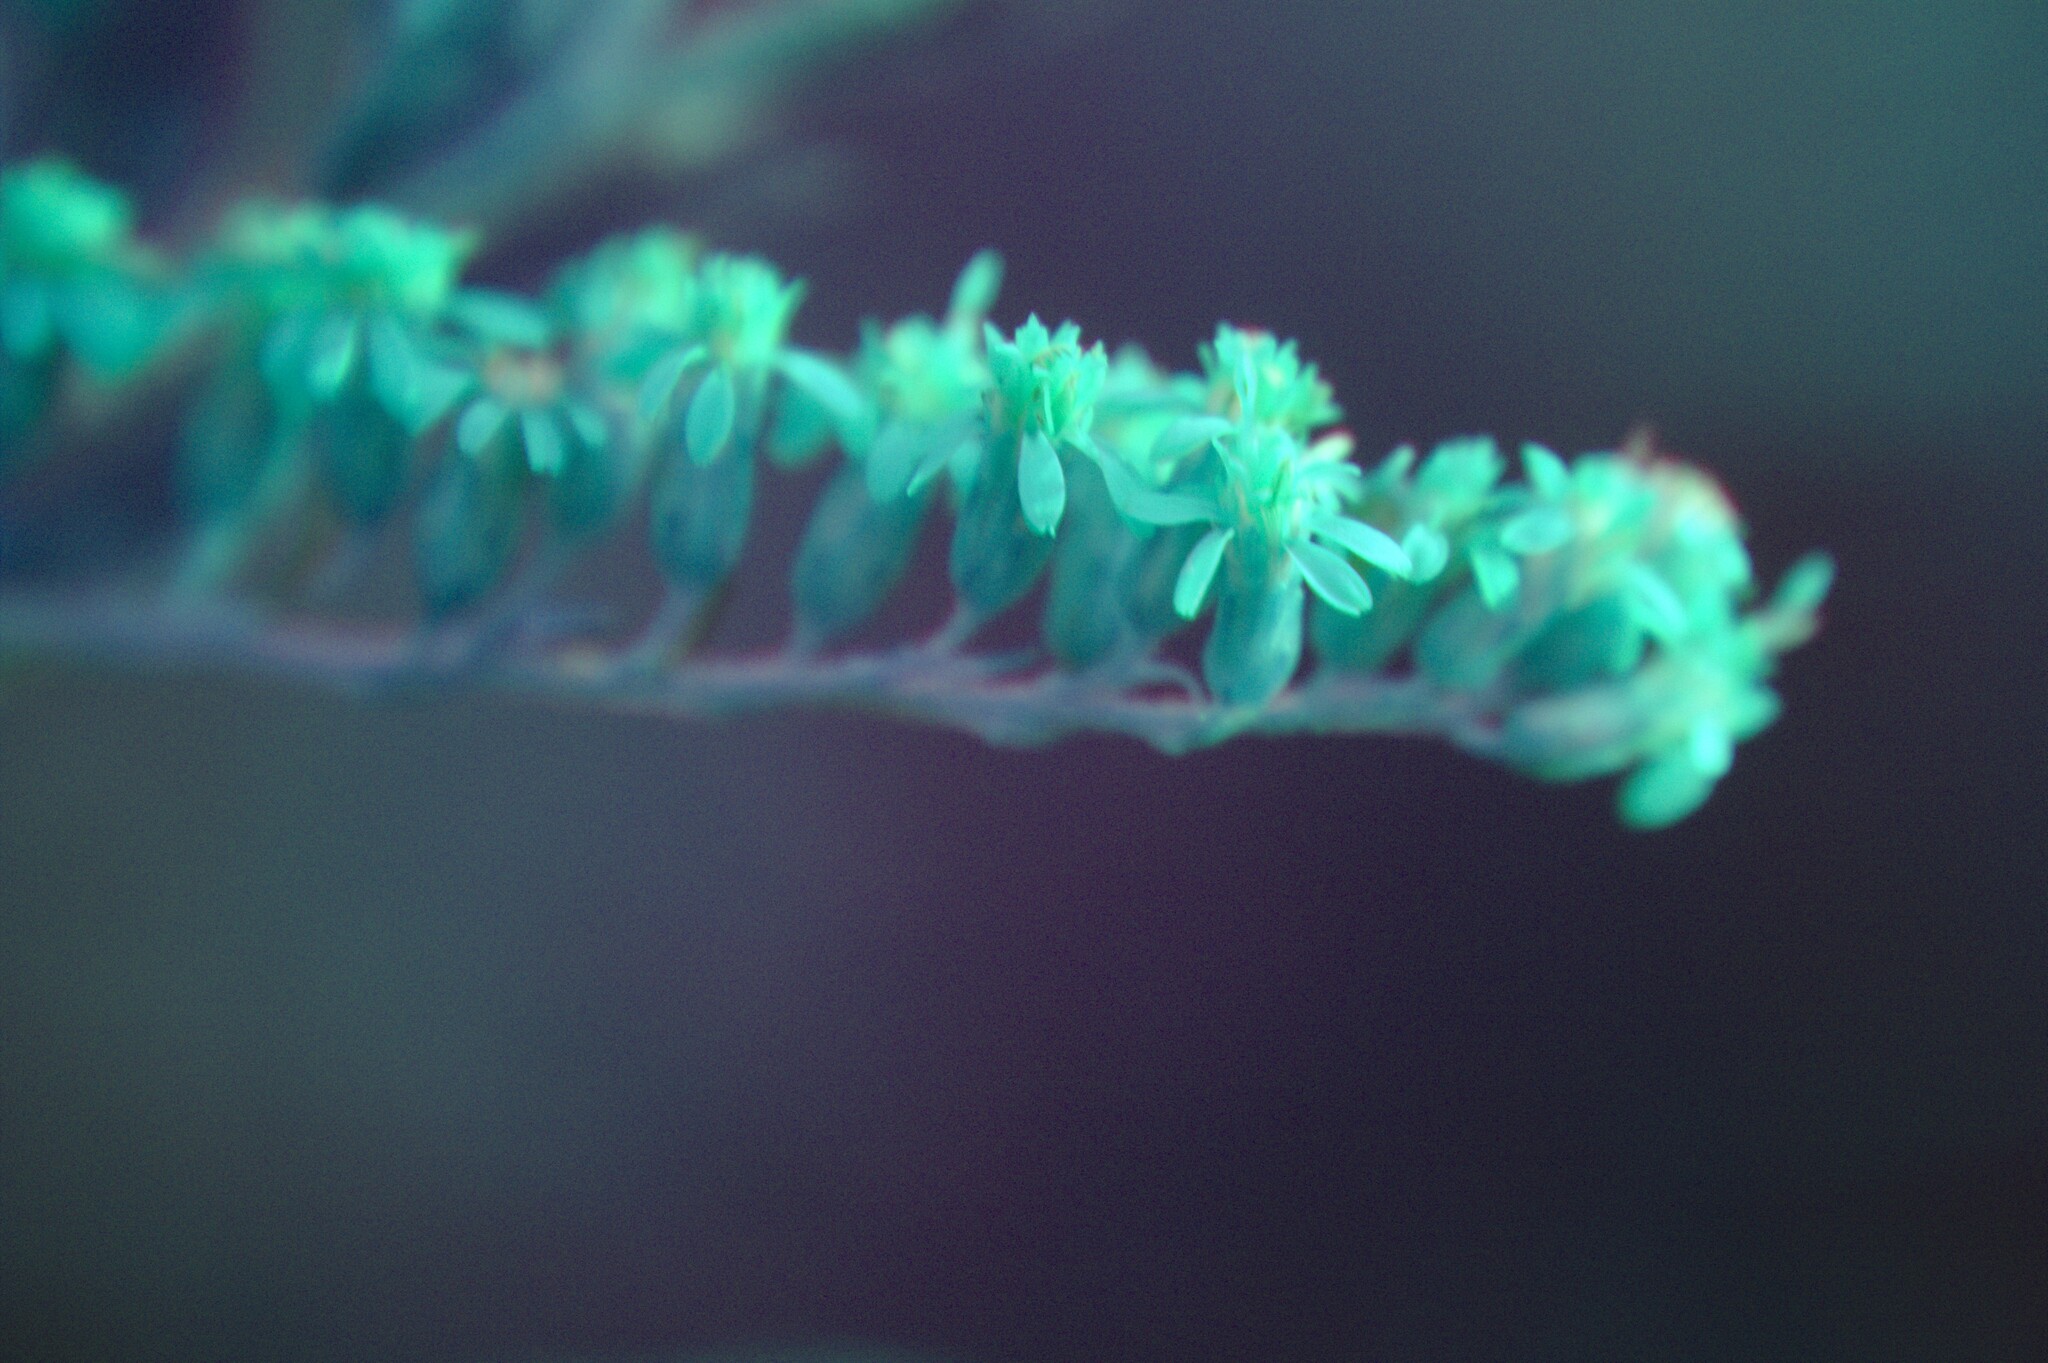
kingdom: Plantae
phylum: Tracheophyta
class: Magnoliopsida
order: Asterales
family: Asteraceae
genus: Solidago
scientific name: Solidago rugosa
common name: Rough-stemmed goldenrod
